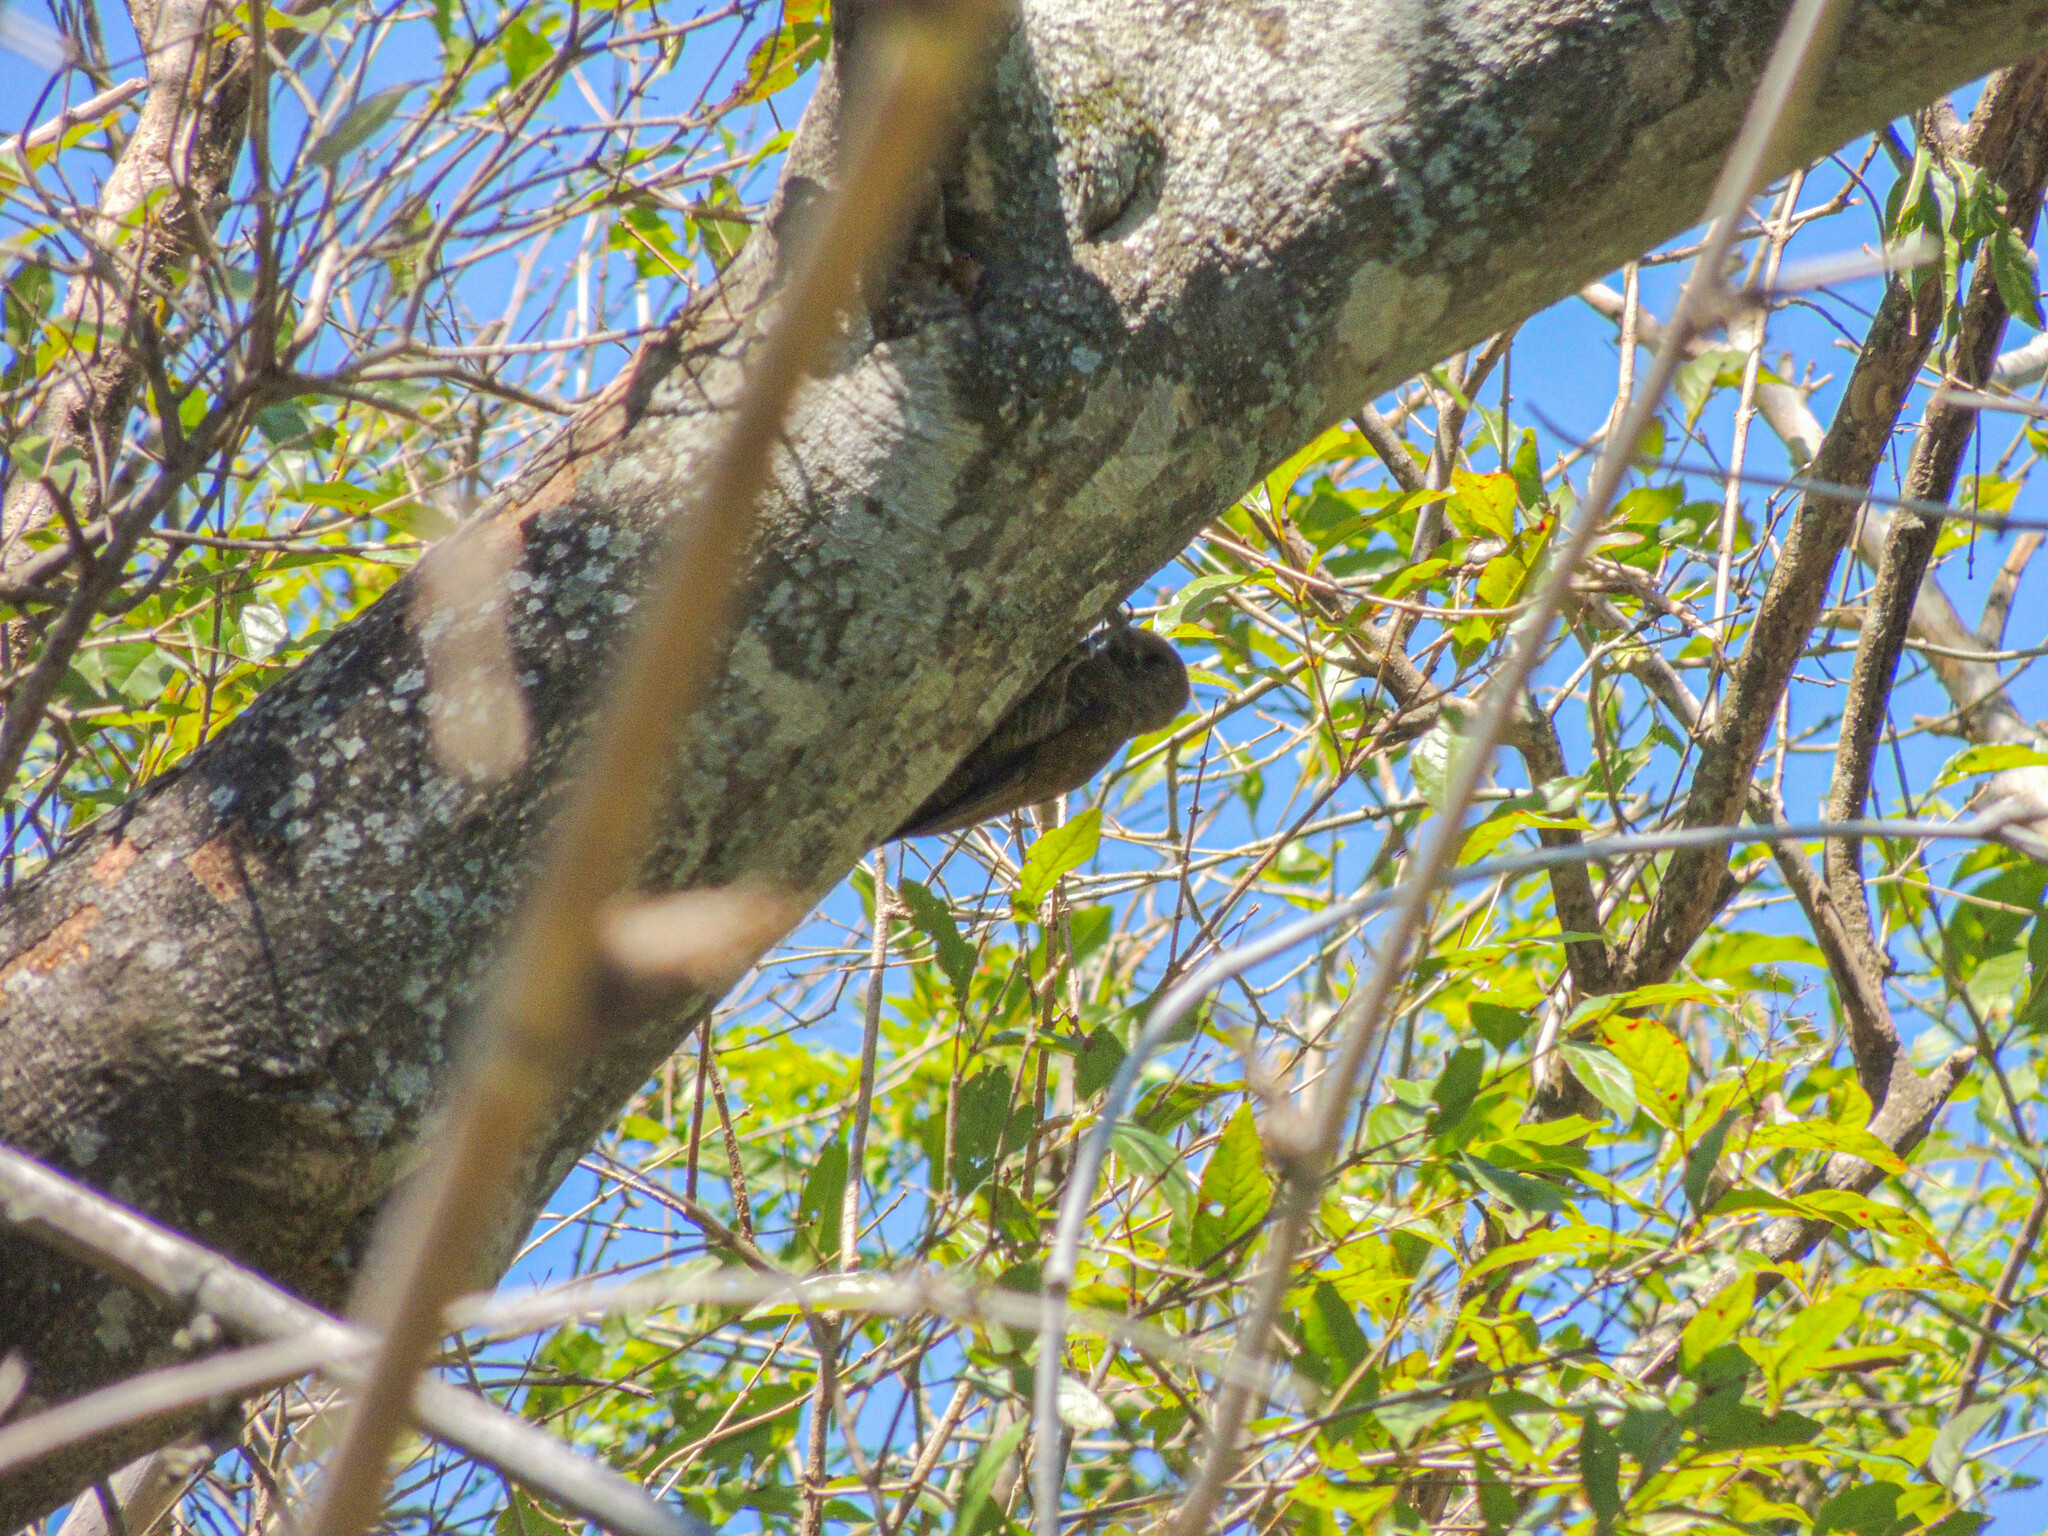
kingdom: Animalia
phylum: Chordata
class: Aves
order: Piciformes
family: Picidae
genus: Veniliornis
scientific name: Veniliornis passerinus
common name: Little woodpecker
